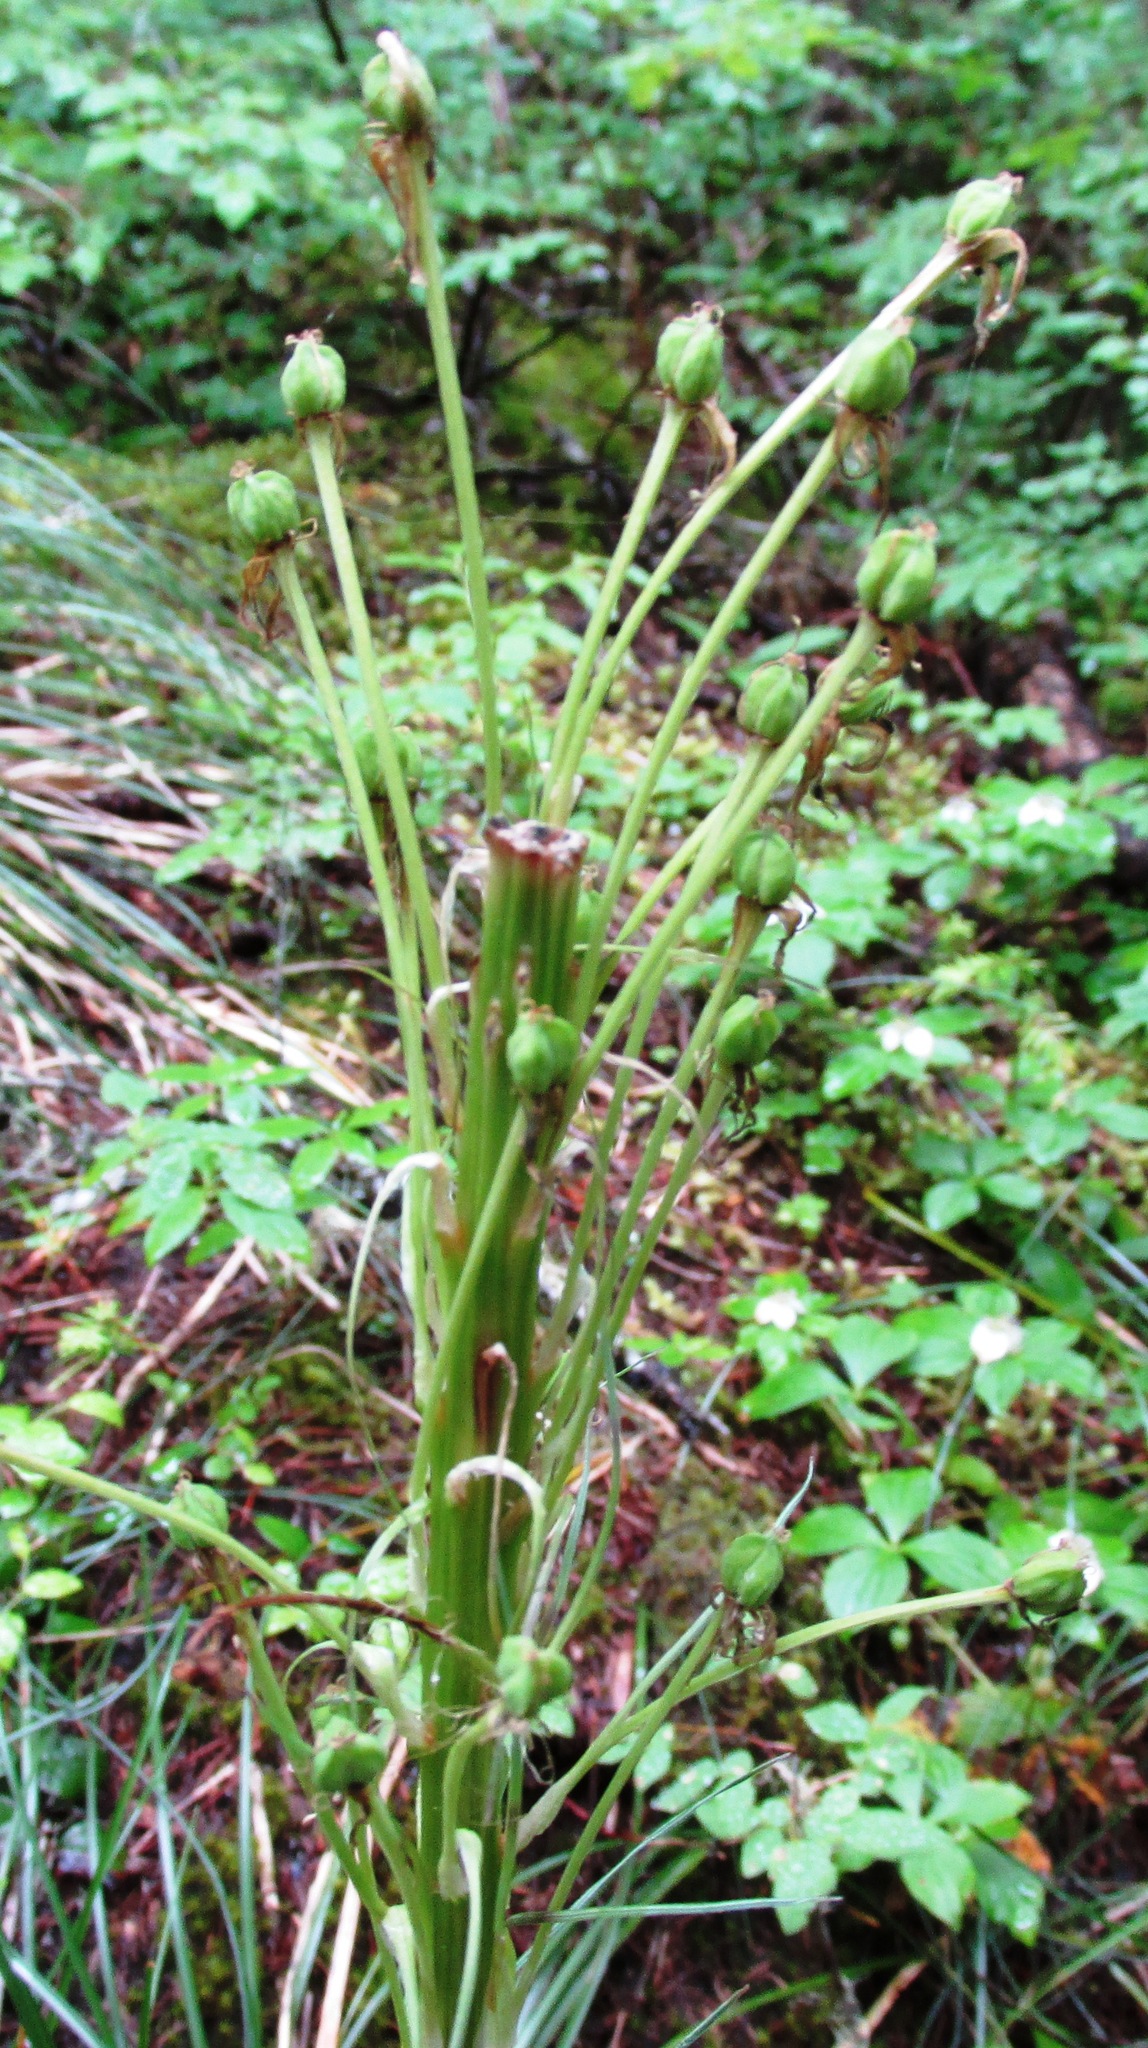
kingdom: Plantae
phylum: Tracheophyta
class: Liliopsida
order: Liliales
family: Melanthiaceae
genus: Xerophyllum
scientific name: Xerophyllum tenax
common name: Bear-grass
